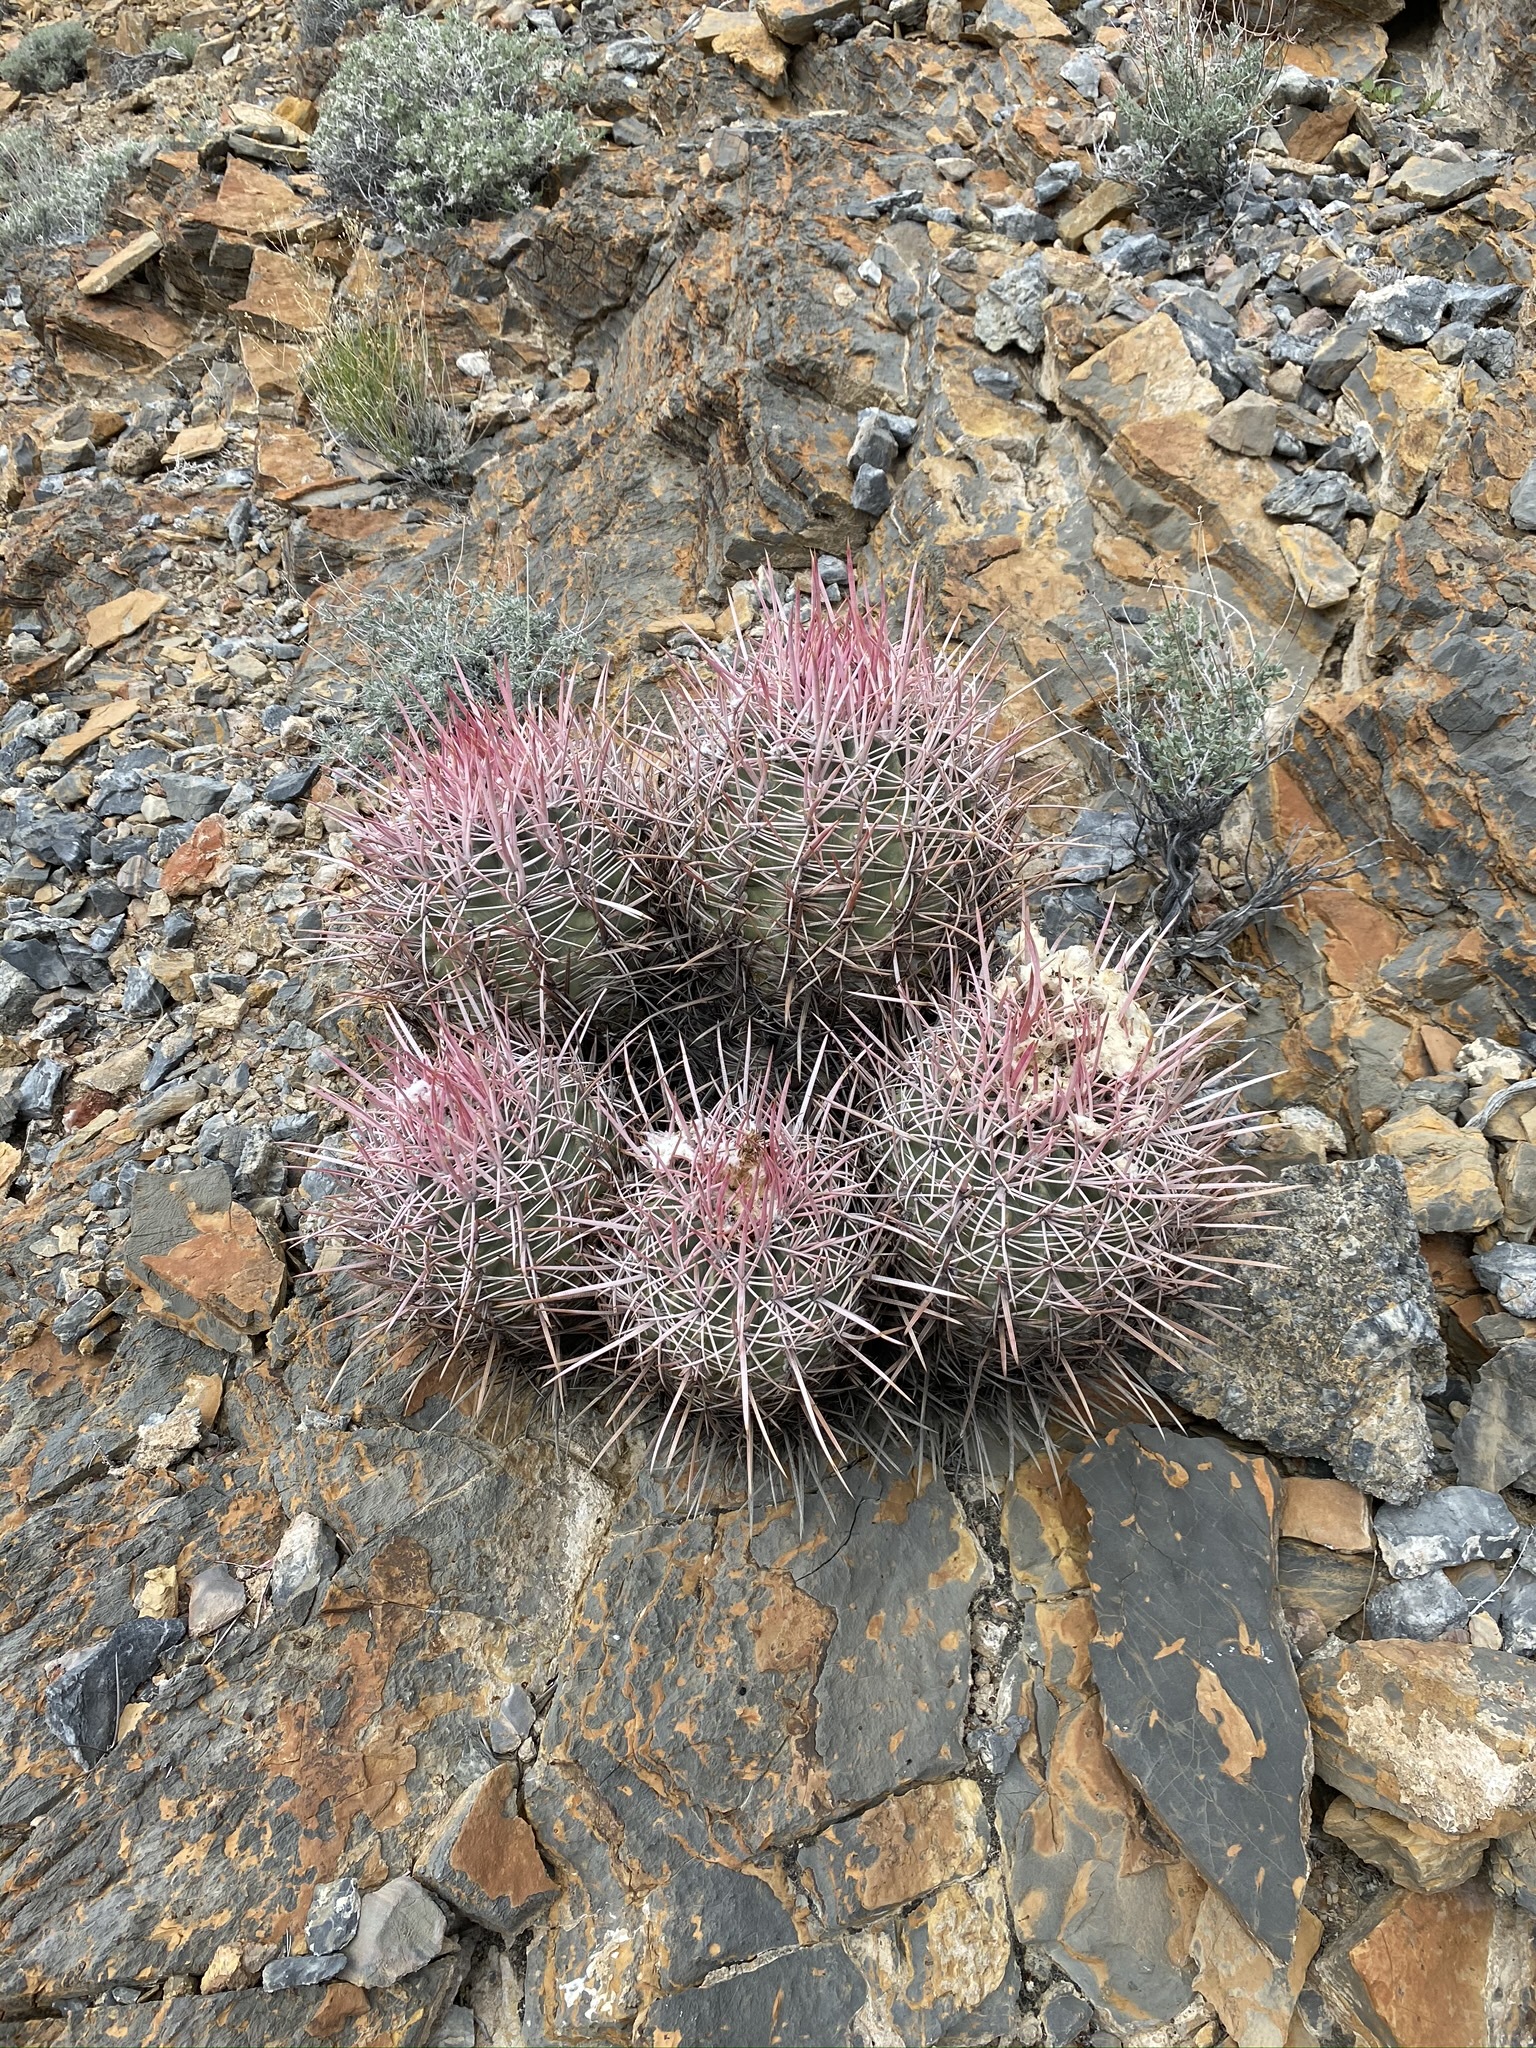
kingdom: Plantae
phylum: Tracheophyta
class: Magnoliopsida
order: Caryophyllales
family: Cactaceae
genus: Echinocactus
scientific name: Echinocactus polycephalus
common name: Cottontop cactus
